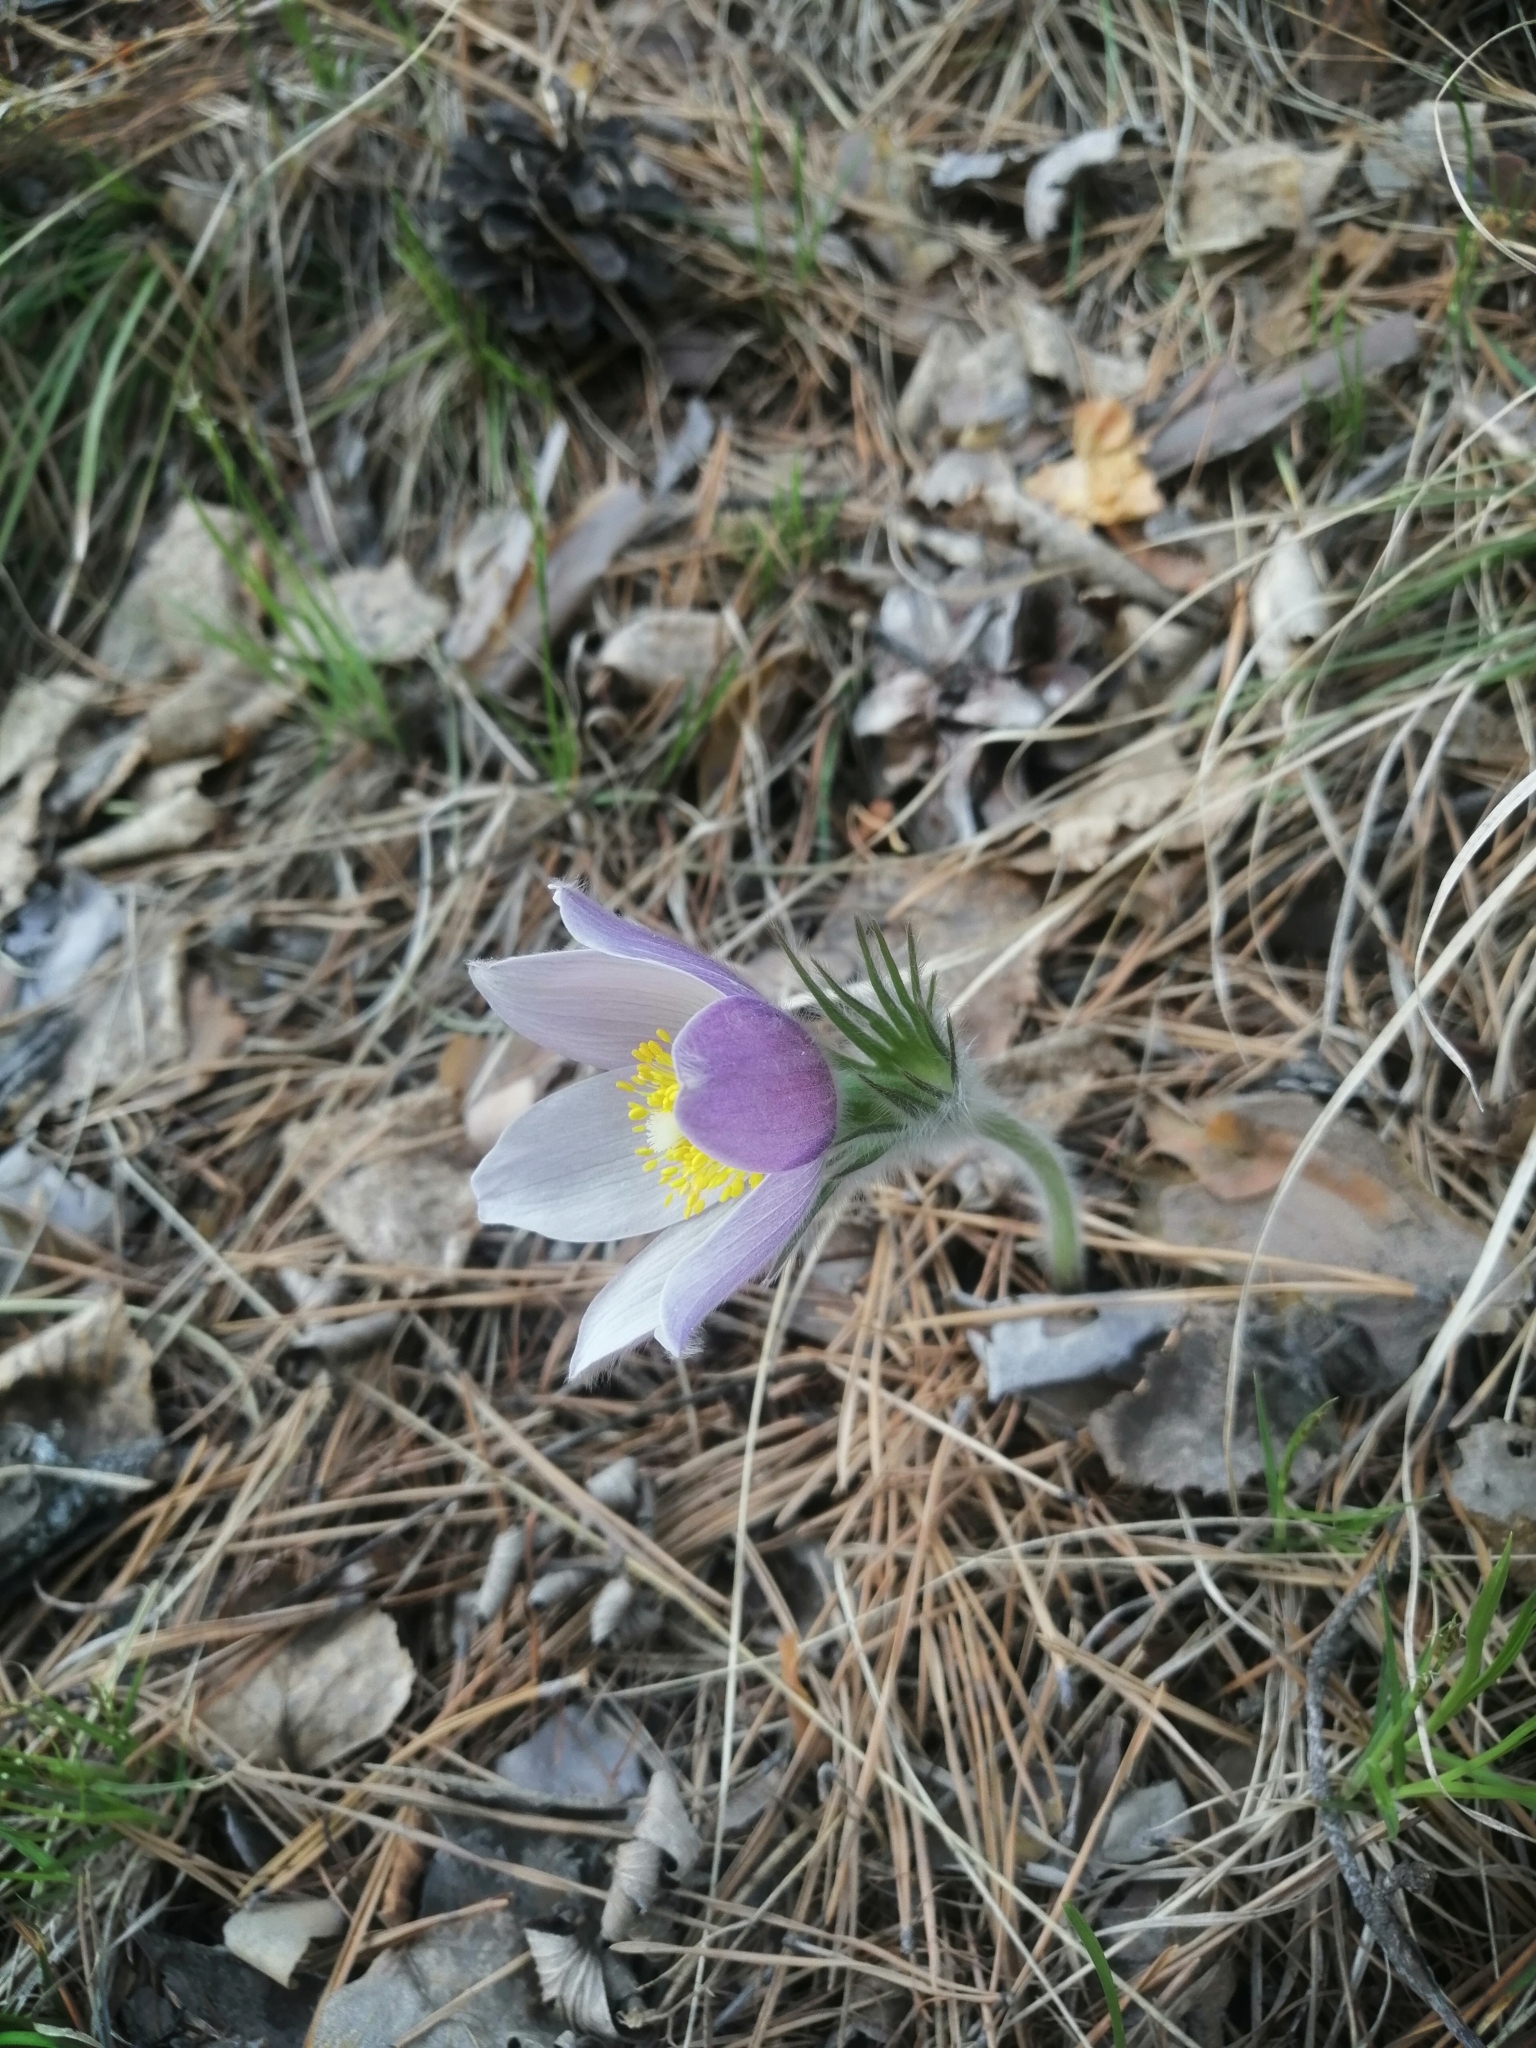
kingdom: Plantae
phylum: Tracheophyta
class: Magnoliopsida
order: Ranunculales
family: Ranunculaceae
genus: Pulsatilla
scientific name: Pulsatilla patens
